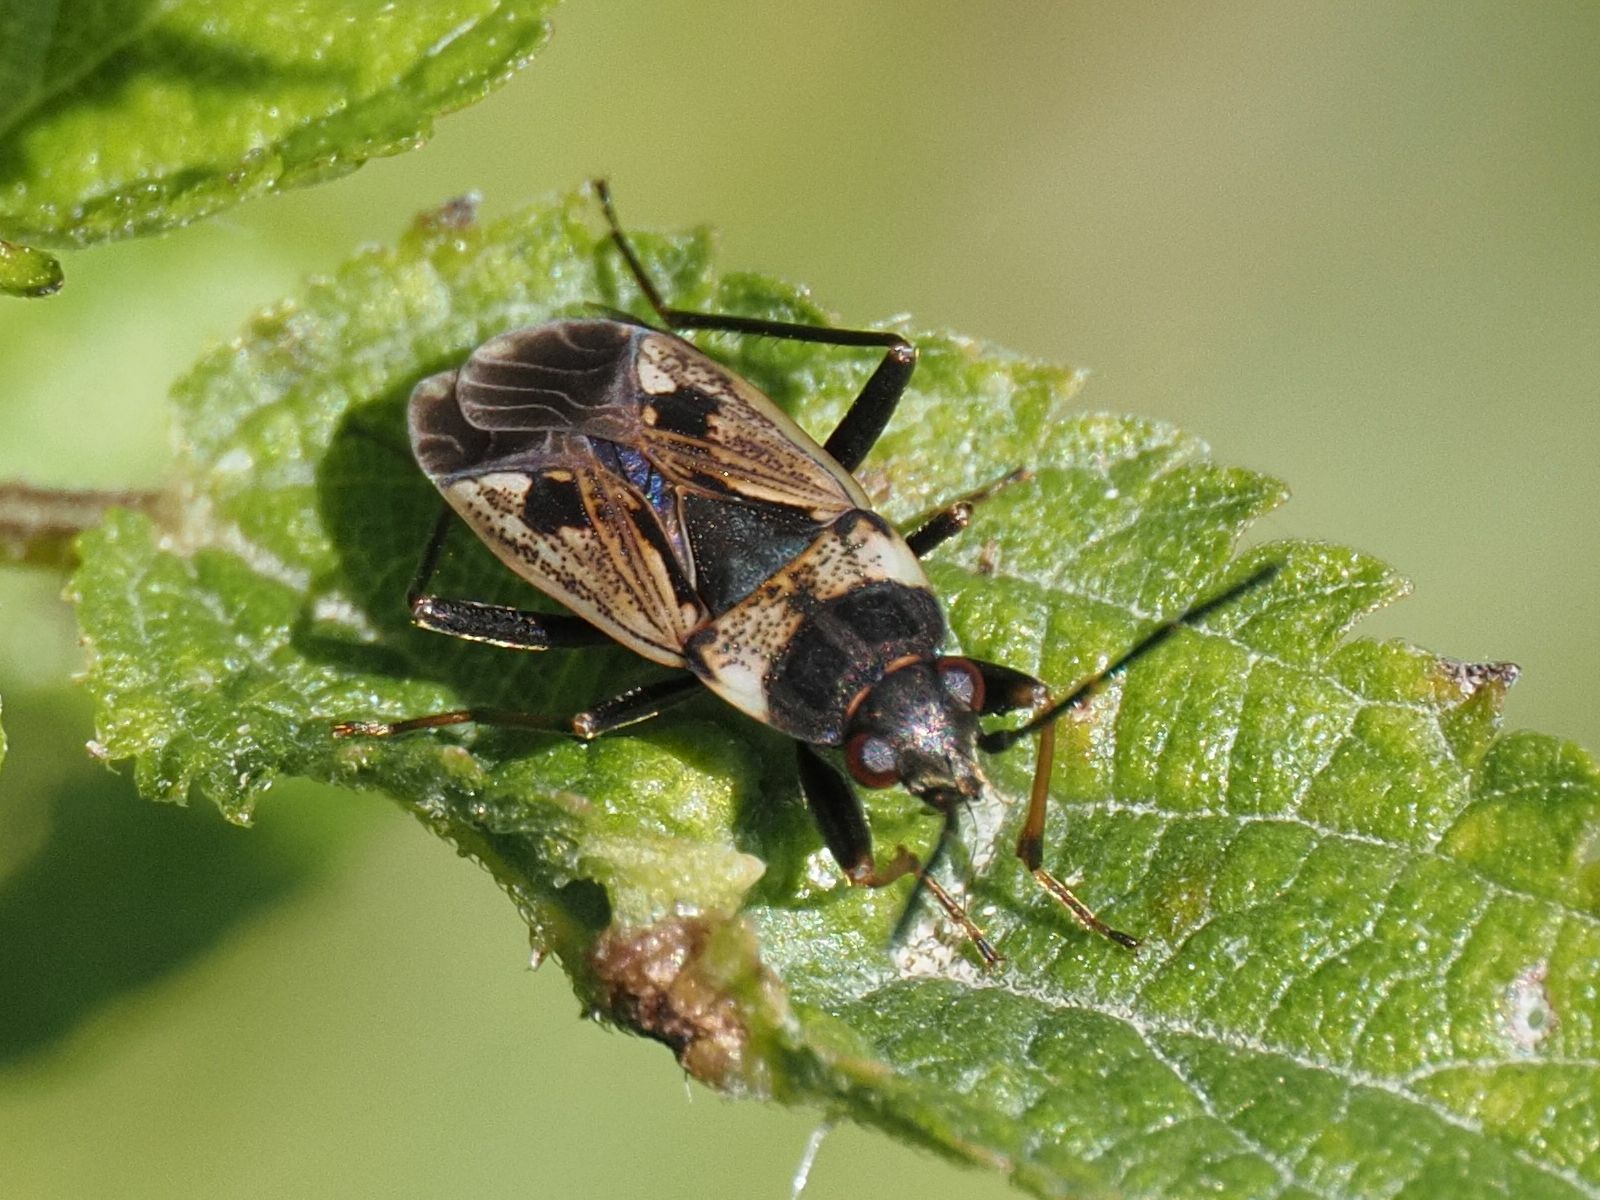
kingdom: Animalia
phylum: Arthropoda
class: Insecta
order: Hemiptera
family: Rhyparochromidae
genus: Rhyparochromus
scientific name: Rhyparochromus vulgaris
